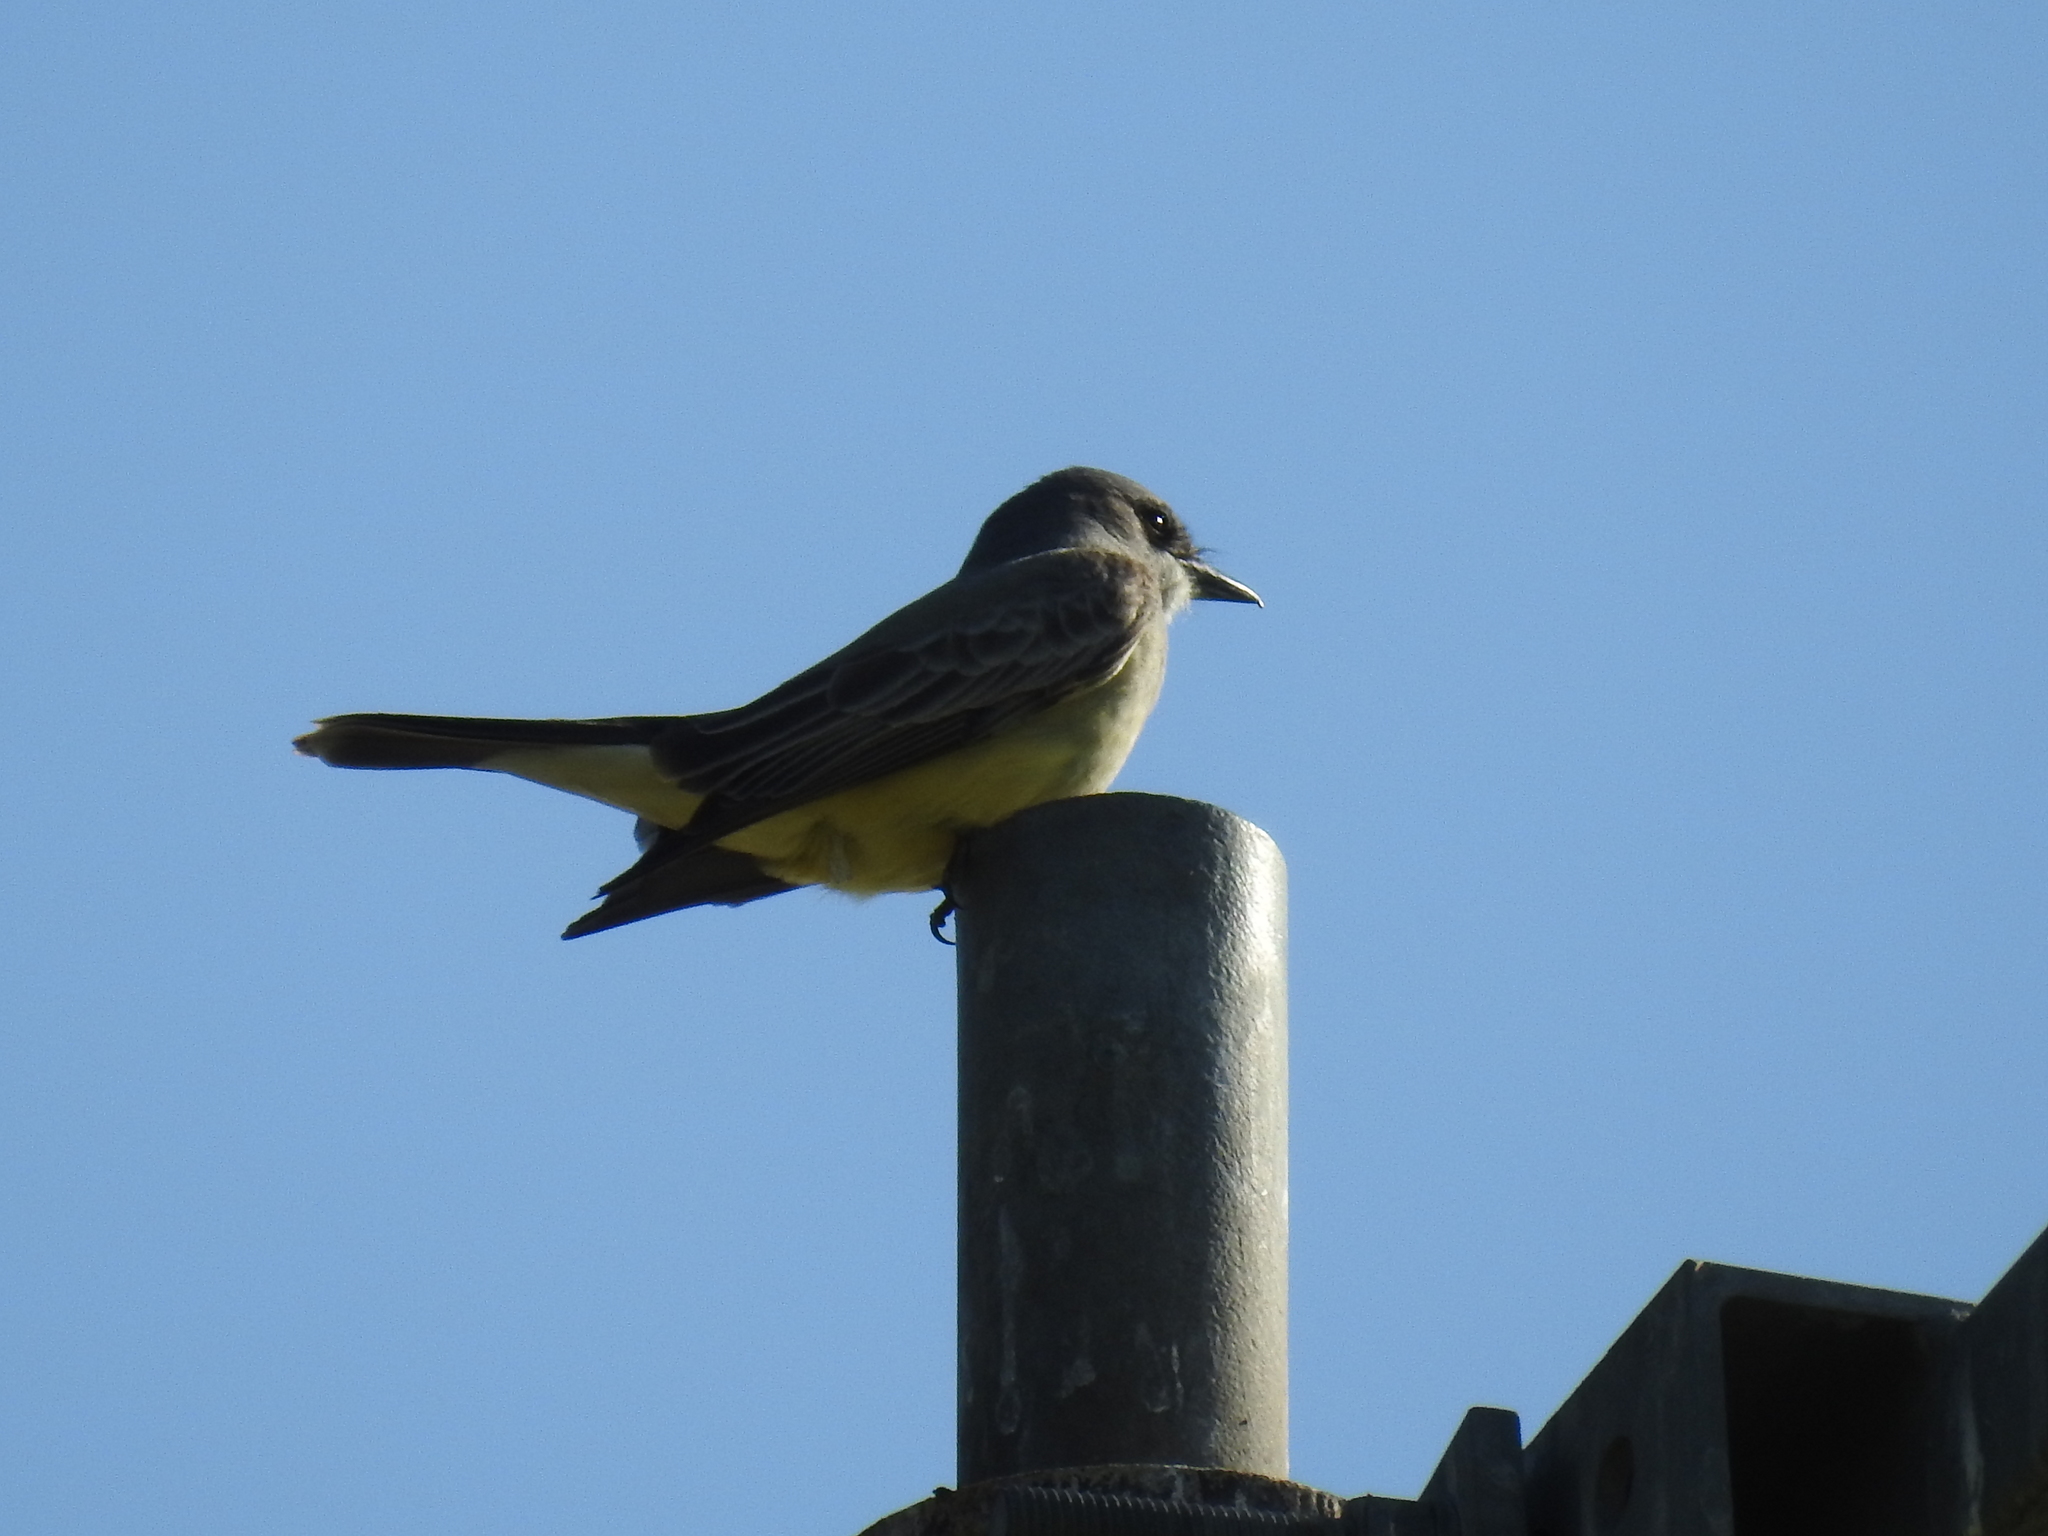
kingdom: Animalia
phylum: Chordata
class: Aves
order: Passeriformes
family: Tyrannidae
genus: Tyrannus
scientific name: Tyrannus vociferans
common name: Cassin's kingbird
